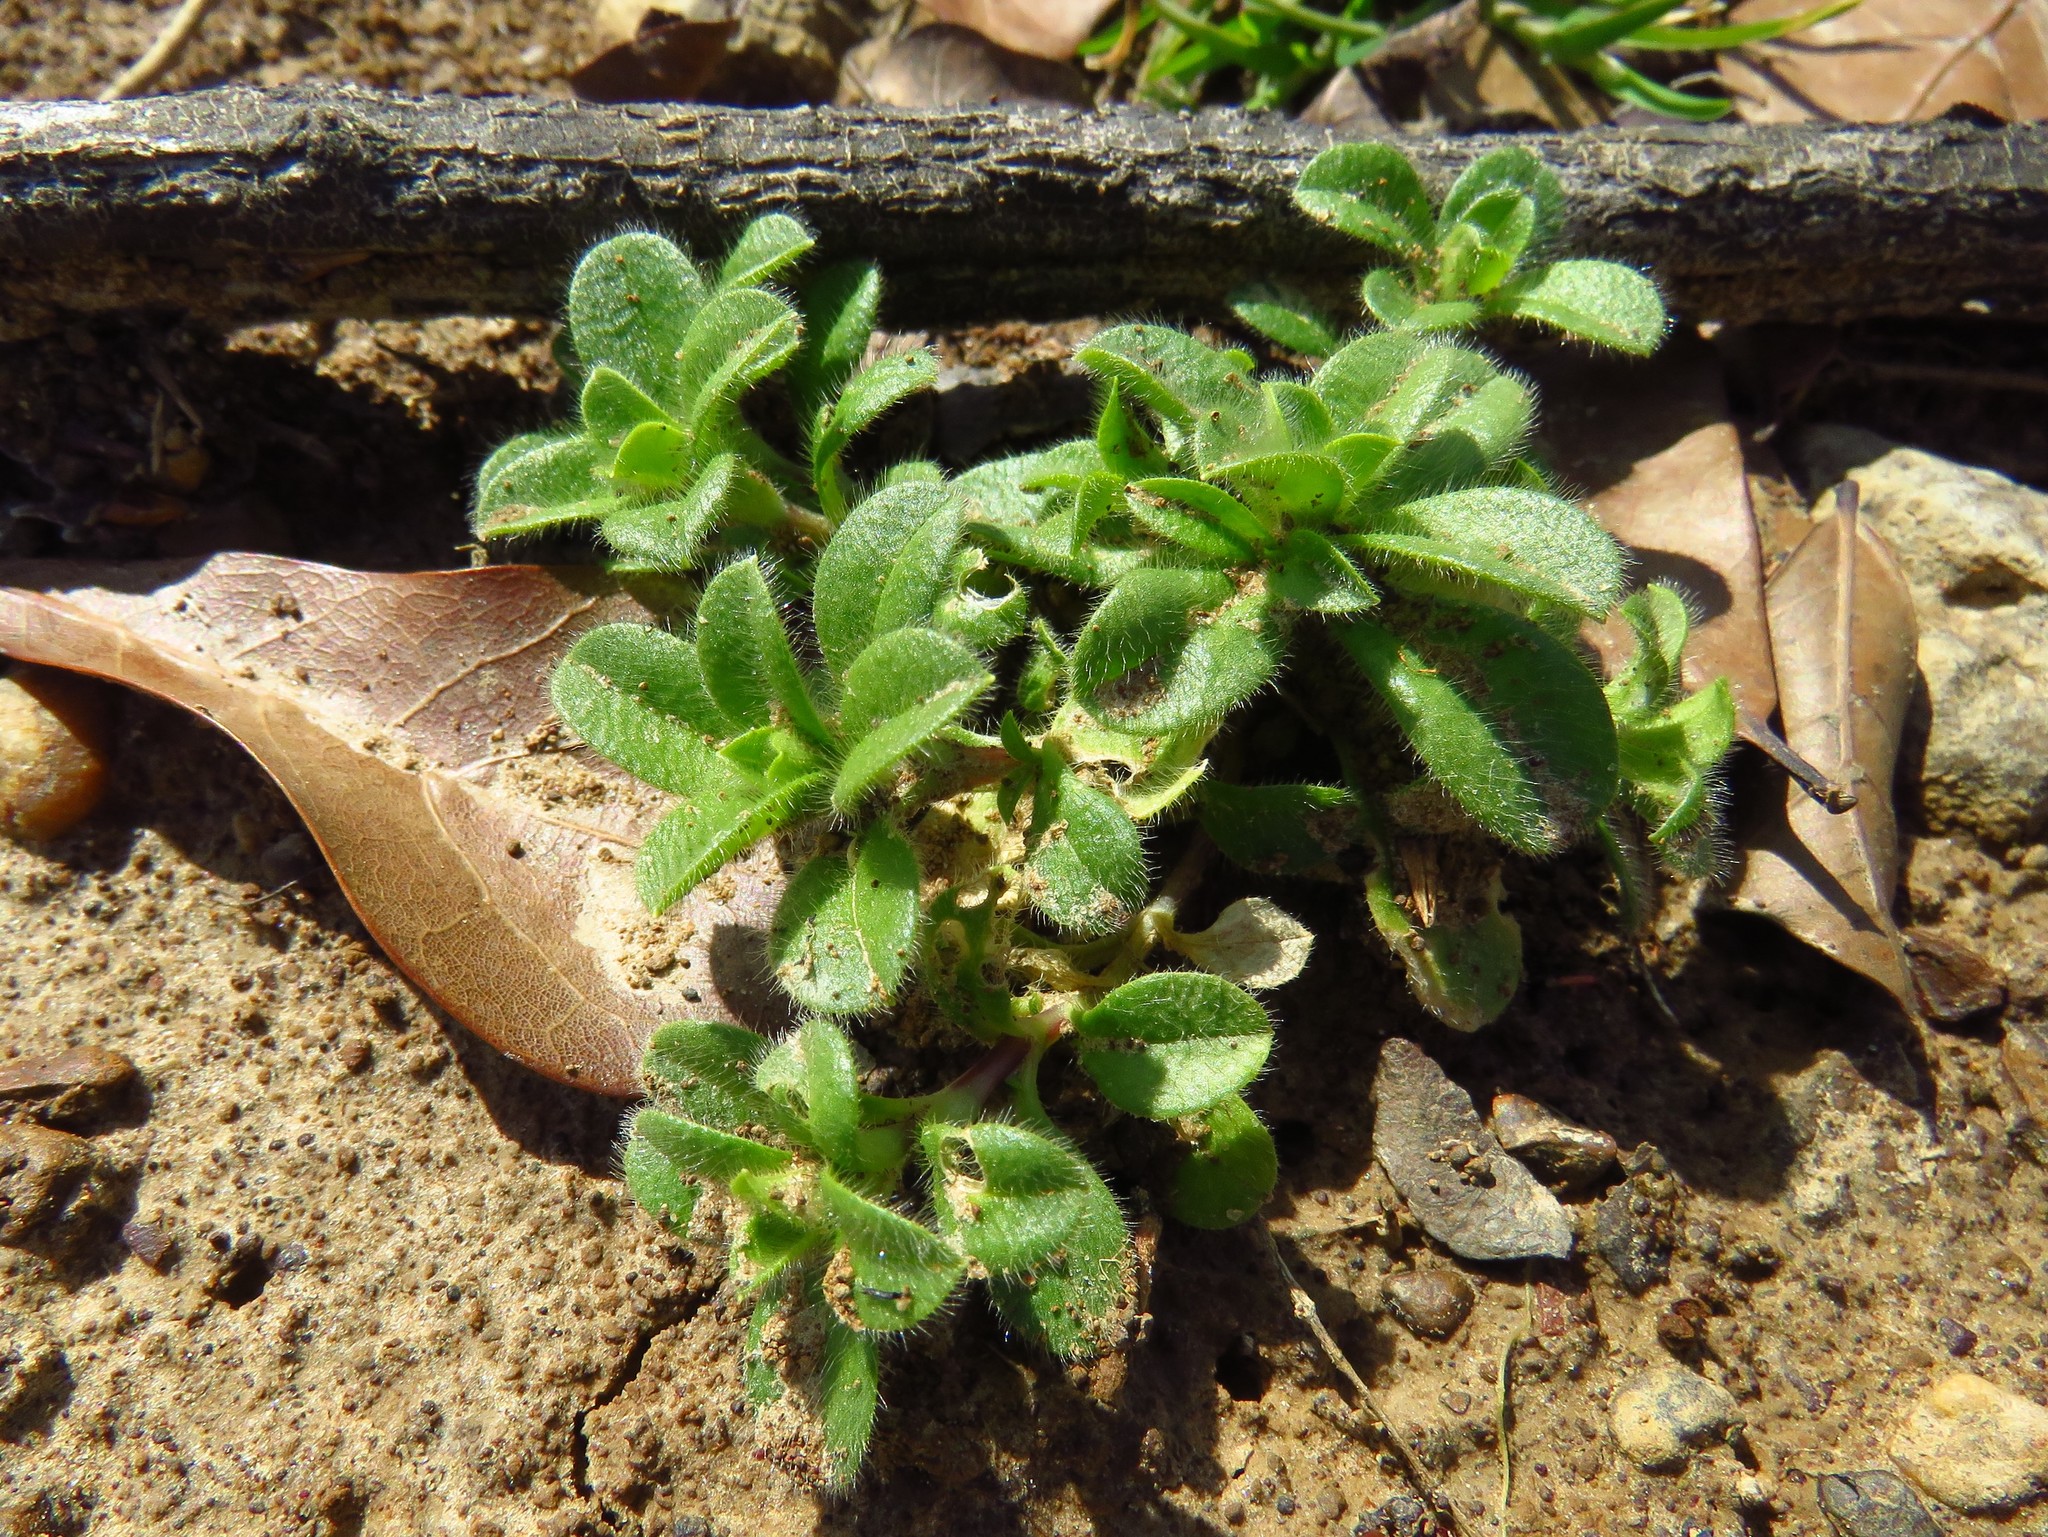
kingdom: Plantae
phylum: Tracheophyta
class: Magnoliopsida
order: Caryophyllales
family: Caryophyllaceae
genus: Cerastium
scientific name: Cerastium glomeratum
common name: Sticky chickweed
